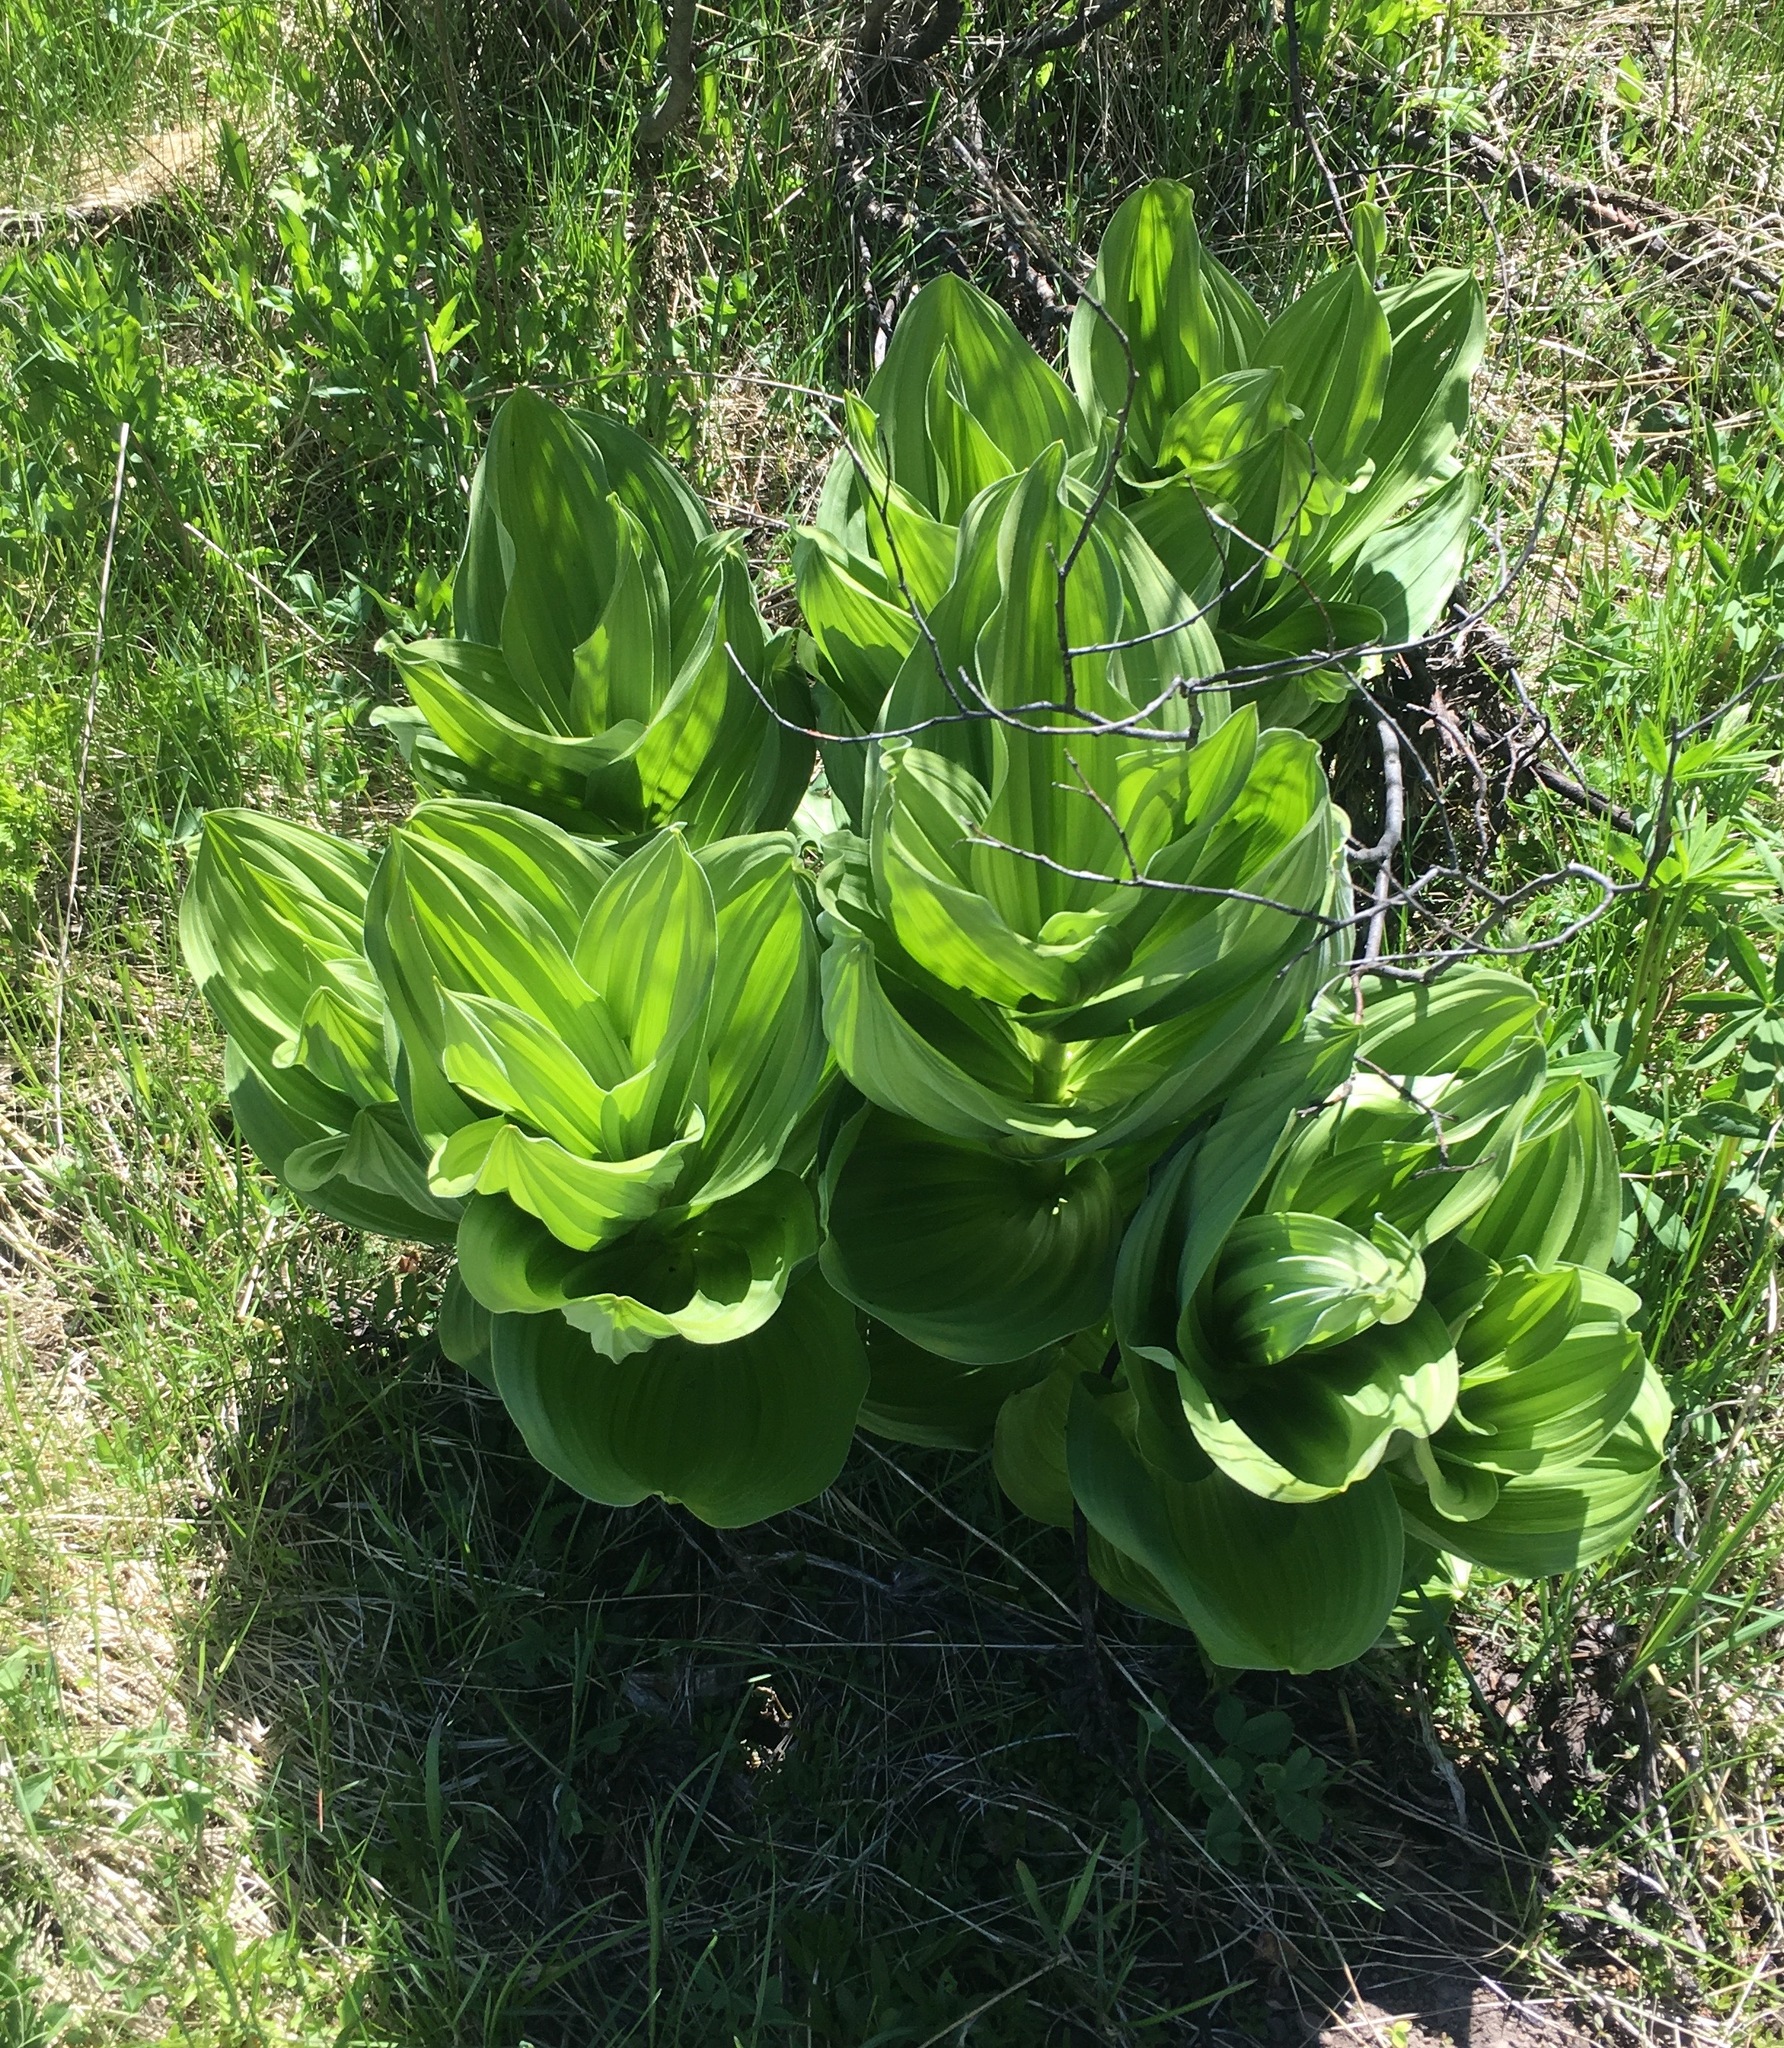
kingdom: Plantae
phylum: Tracheophyta
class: Liliopsida
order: Liliales
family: Melanthiaceae
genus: Veratrum
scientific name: Veratrum californicum
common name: California veratrum
